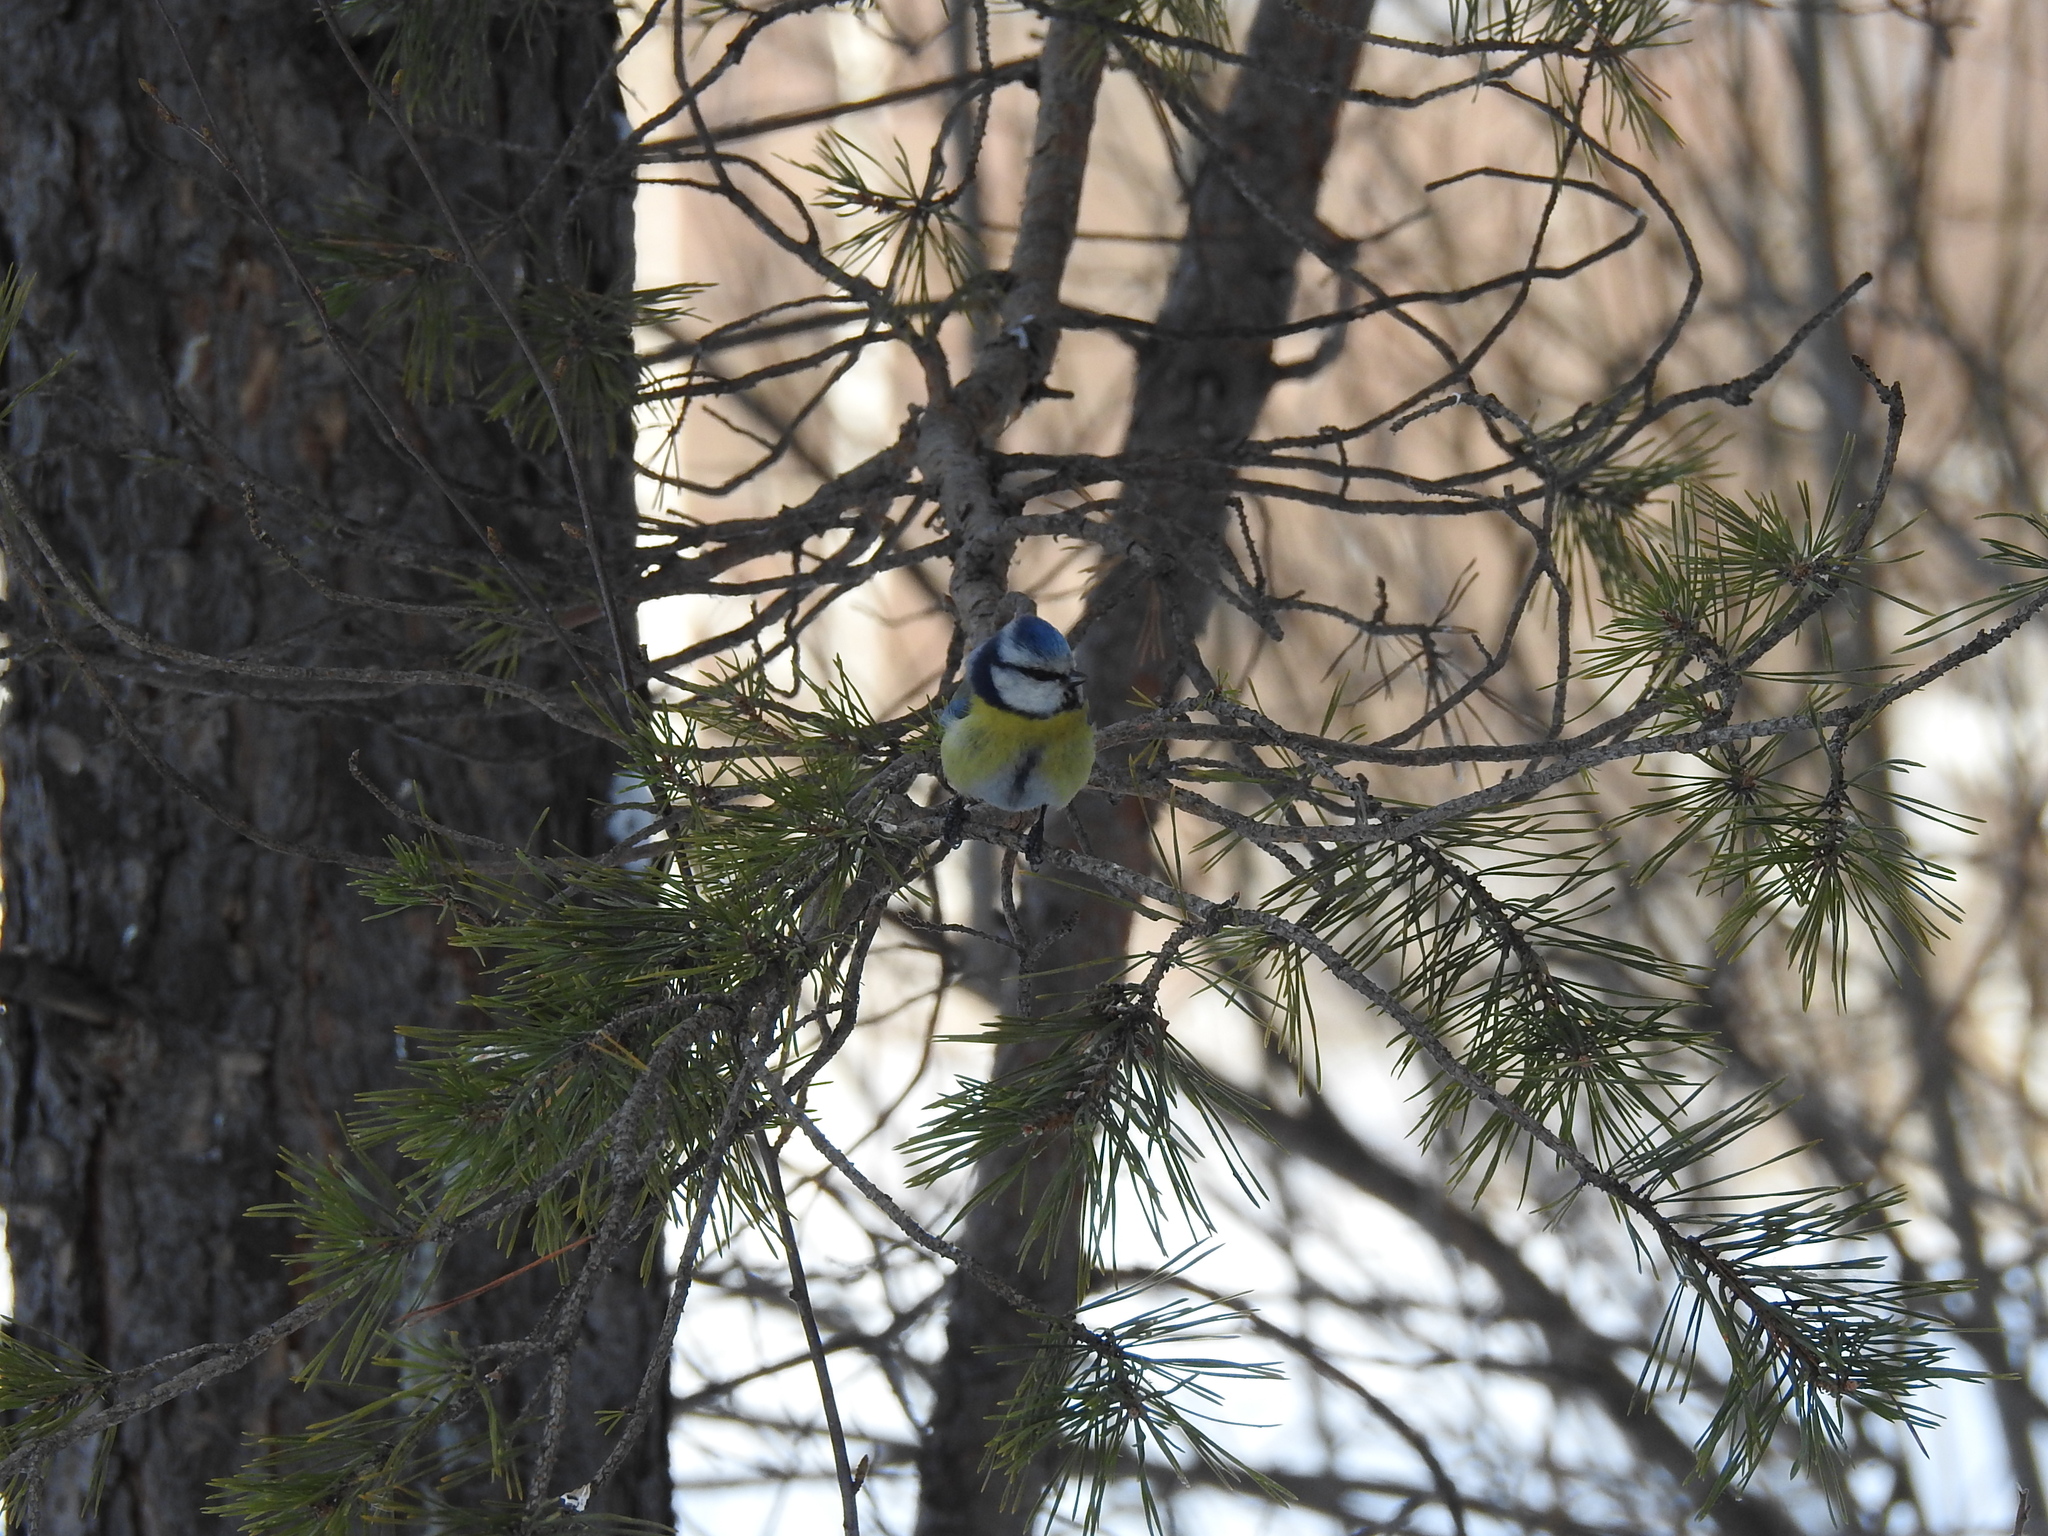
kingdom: Animalia
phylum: Chordata
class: Aves
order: Passeriformes
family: Paridae
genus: Cyanistes
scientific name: Cyanistes caeruleus
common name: Eurasian blue tit
